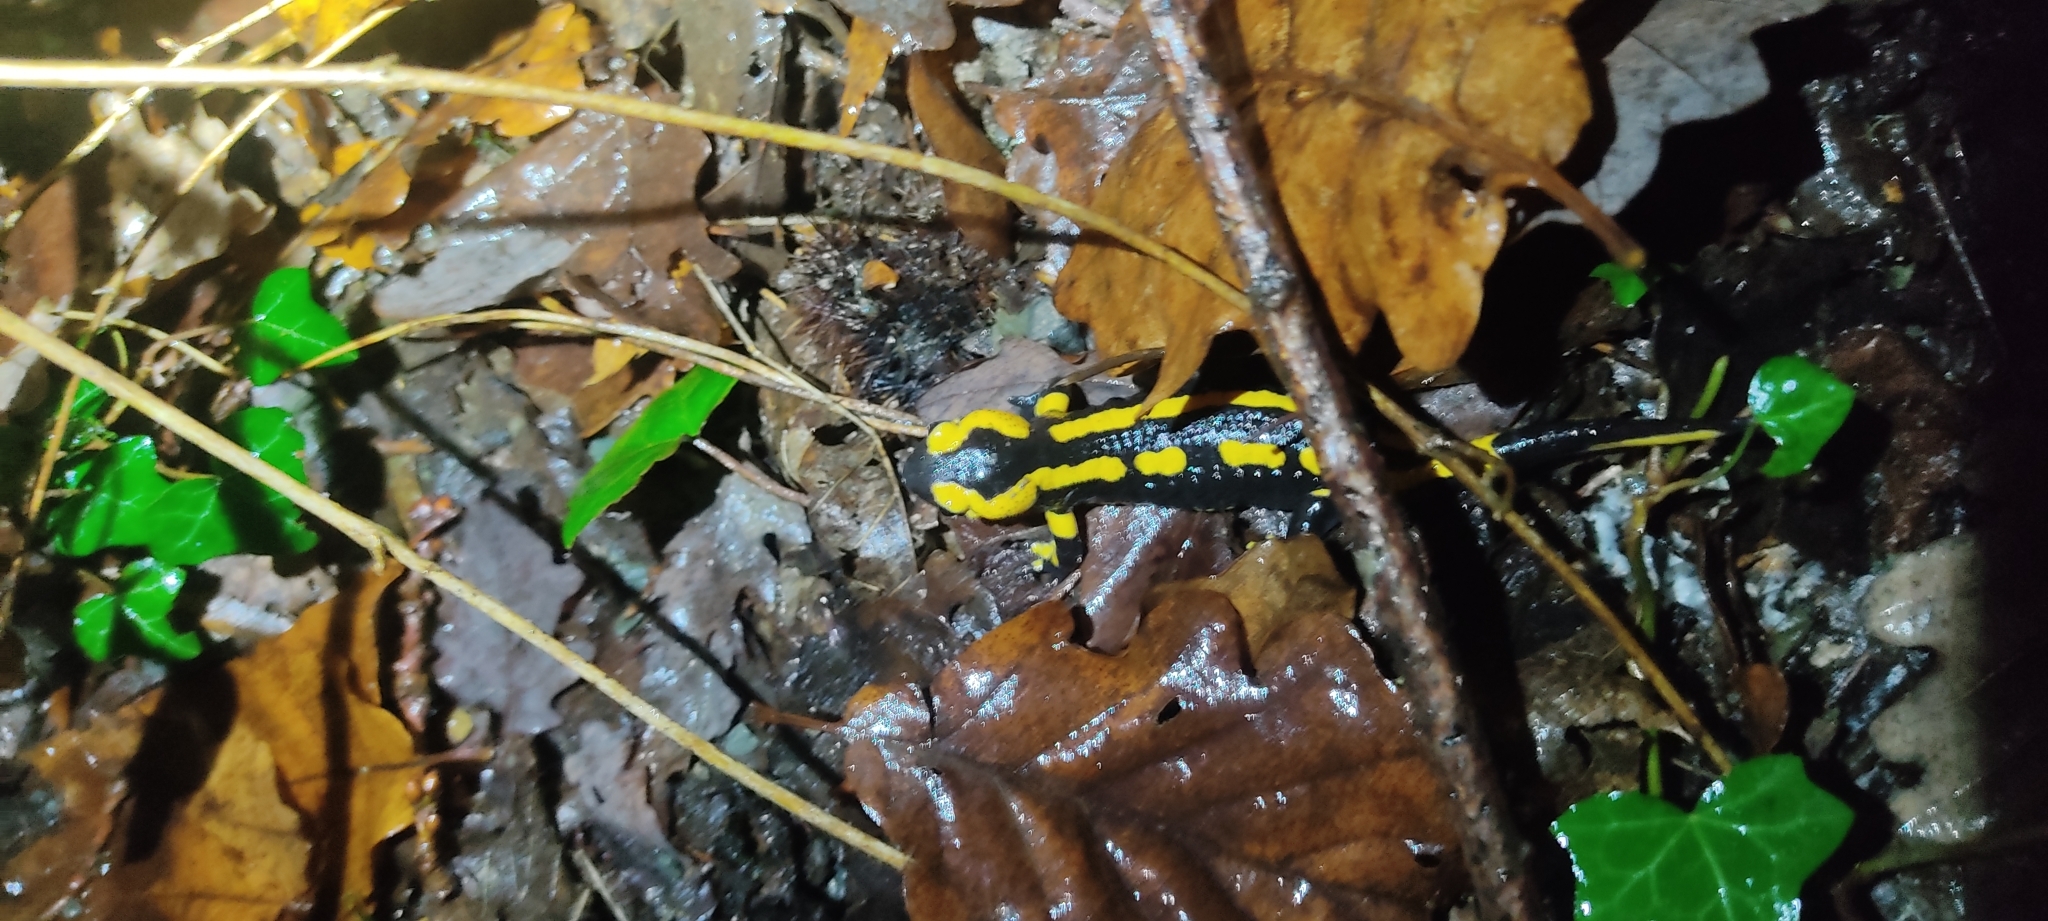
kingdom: Animalia
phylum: Chordata
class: Amphibia
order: Caudata
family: Salamandridae
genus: Salamandra
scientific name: Salamandra salamandra
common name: Fire salamander
